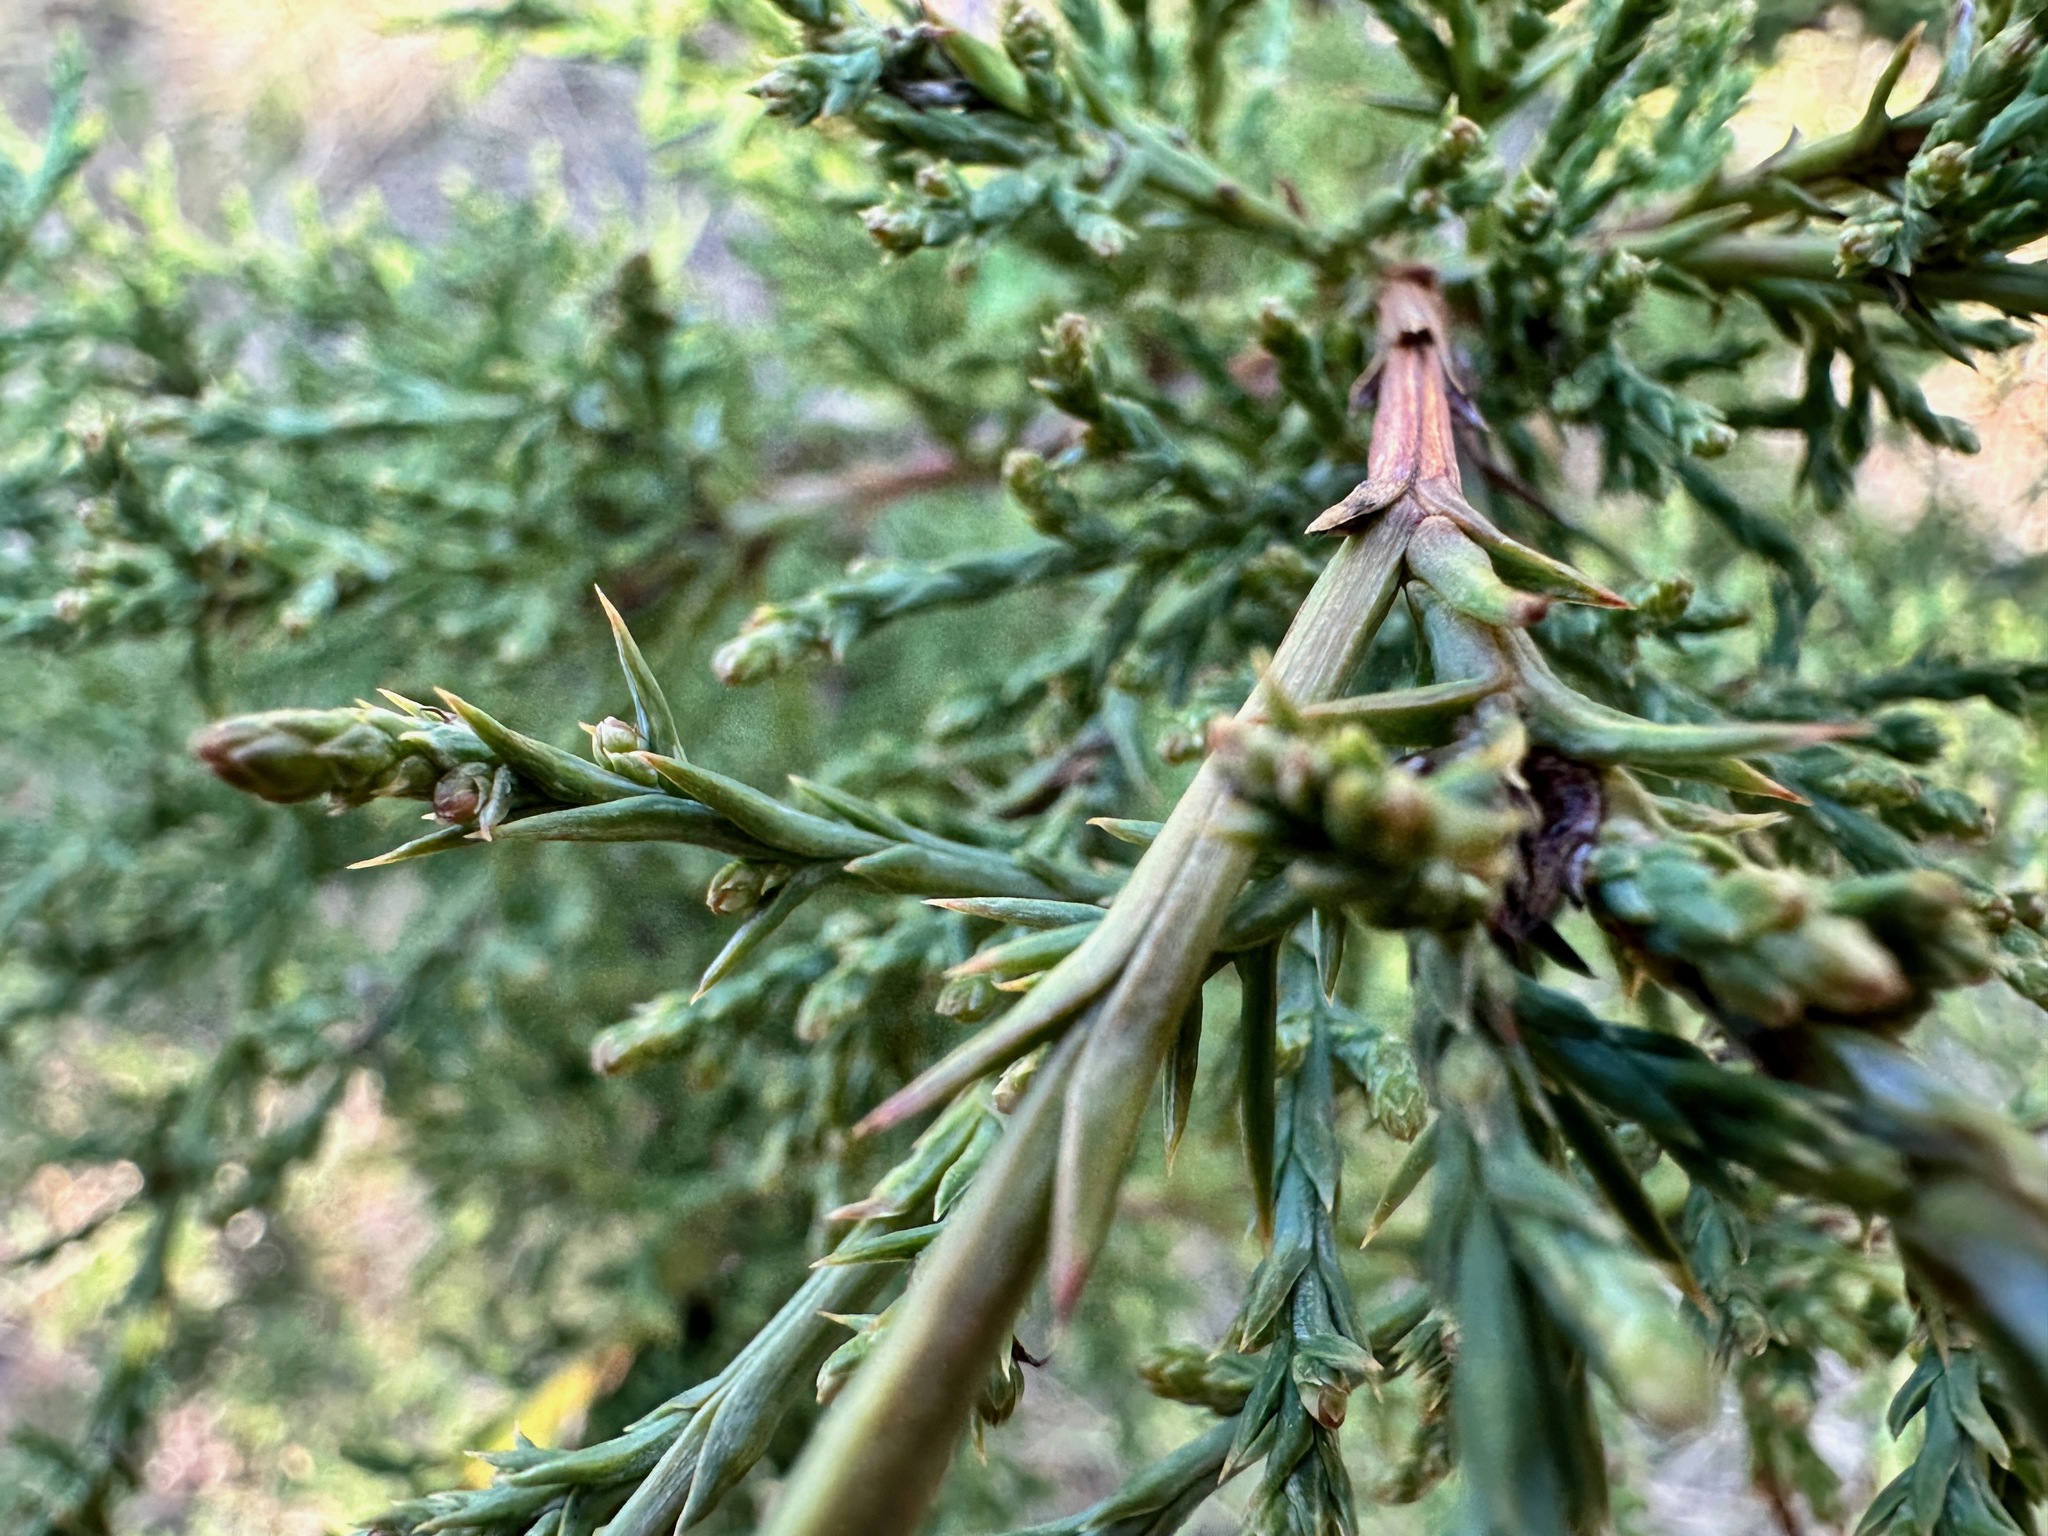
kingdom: Plantae
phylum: Tracheophyta
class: Pinopsida
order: Pinales
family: Cupressaceae
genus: Juniperus
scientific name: Juniperus scopulorum
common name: Rocky mountain juniper
